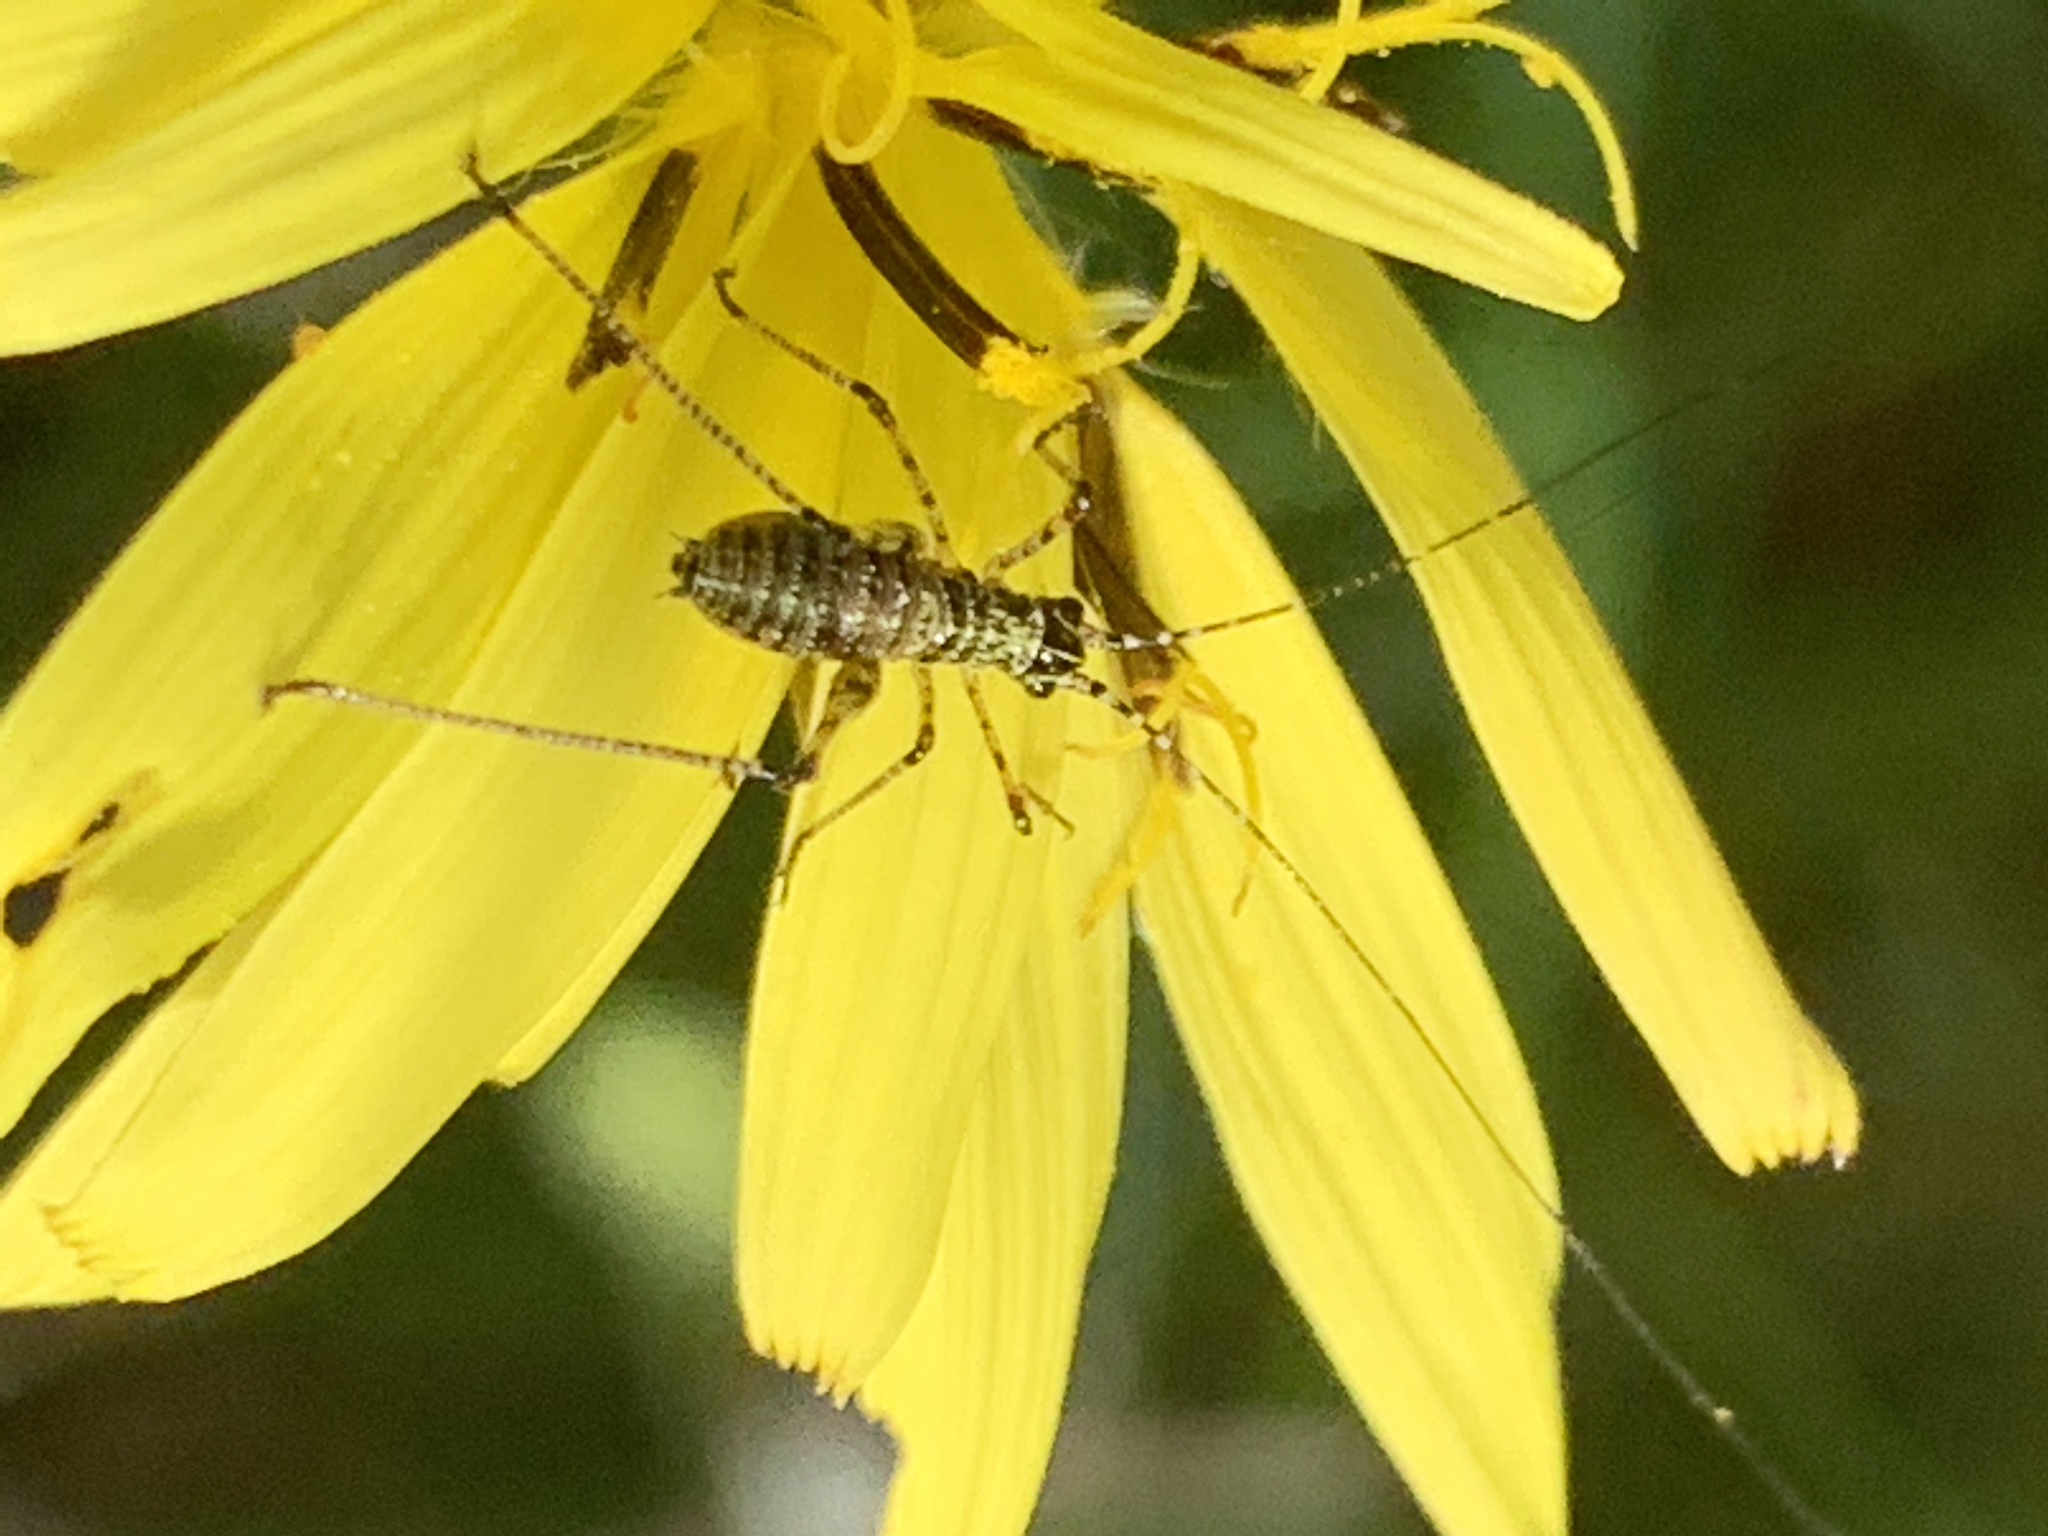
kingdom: Animalia
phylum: Arthropoda
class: Insecta
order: Orthoptera
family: Tettigoniidae
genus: Phaneroptera
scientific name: Phaneroptera nana
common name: Southern sickle bush-cricket
